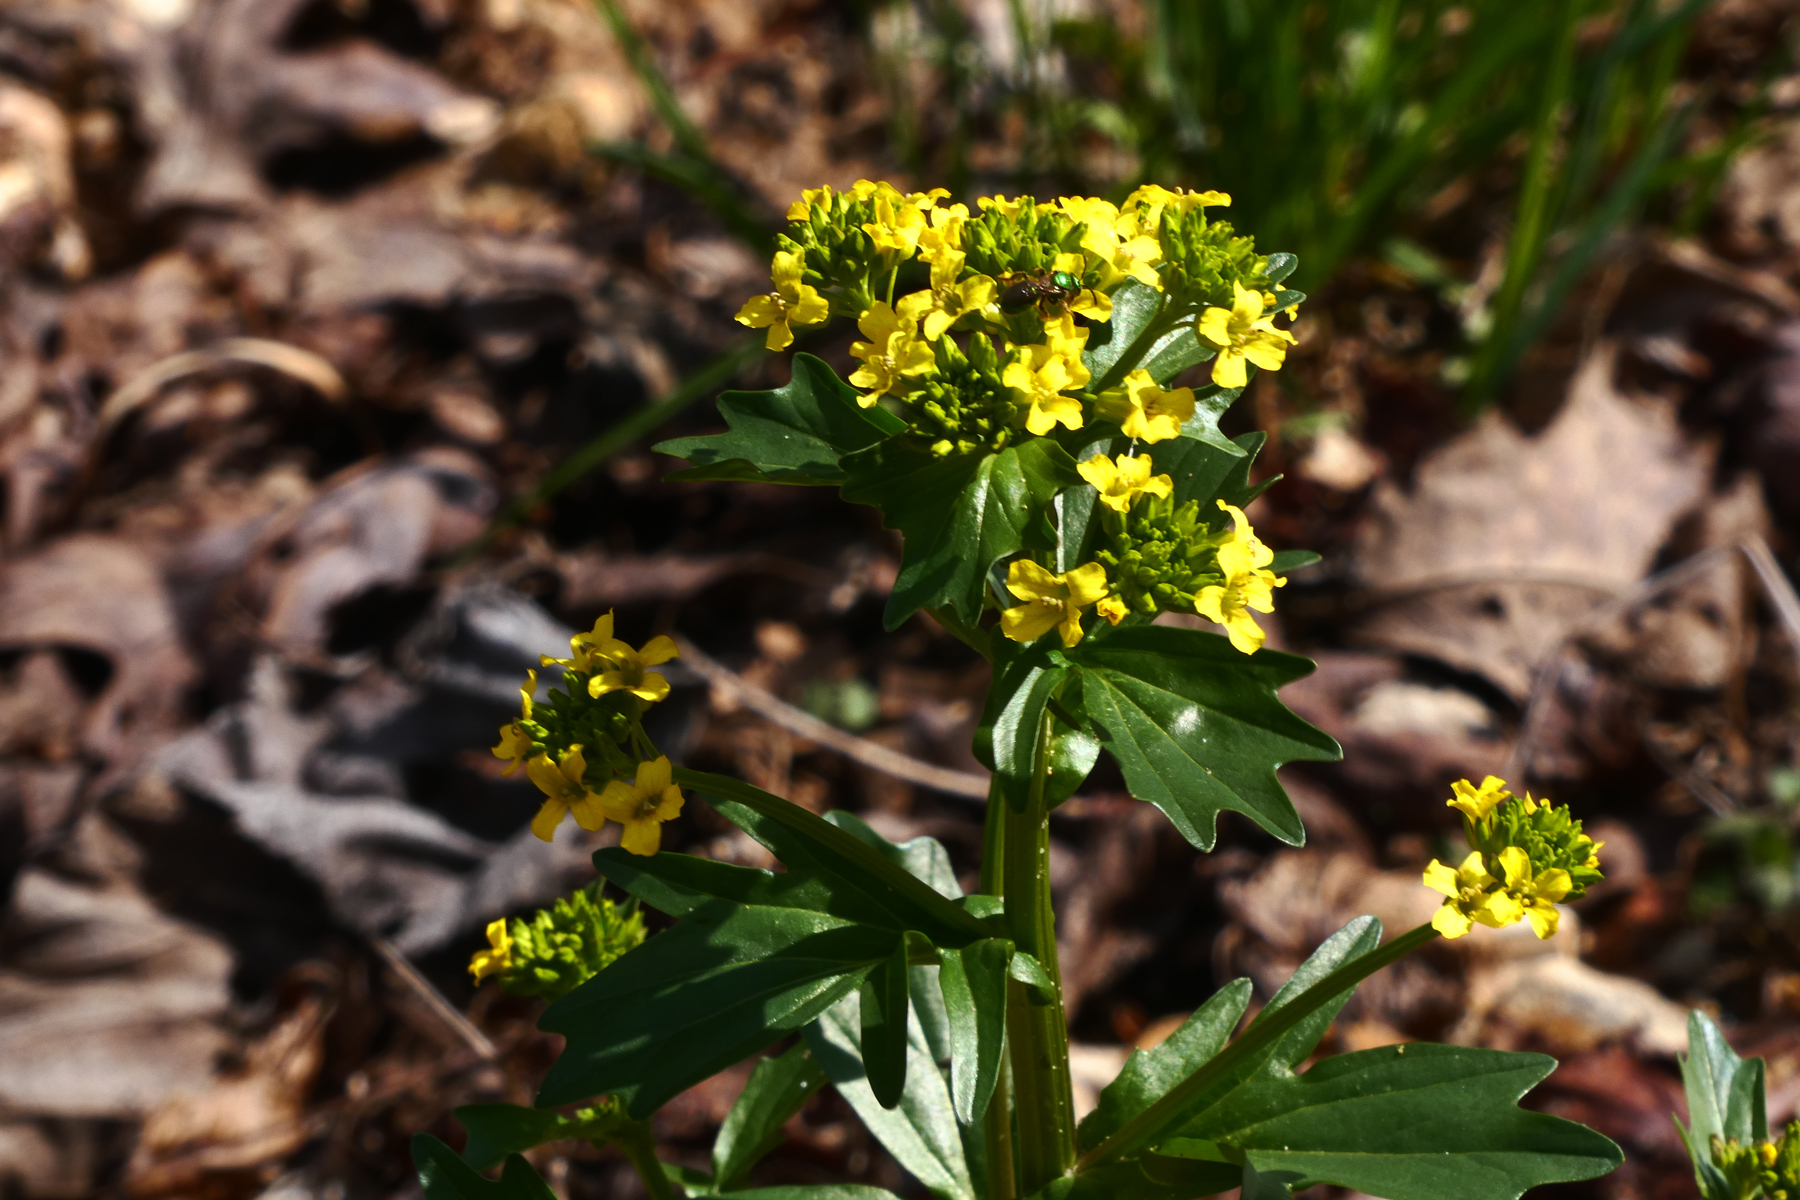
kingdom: Plantae
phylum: Tracheophyta
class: Magnoliopsida
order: Brassicales
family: Brassicaceae
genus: Barbarea
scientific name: Barbarea vulgaris
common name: Cressy-greens
